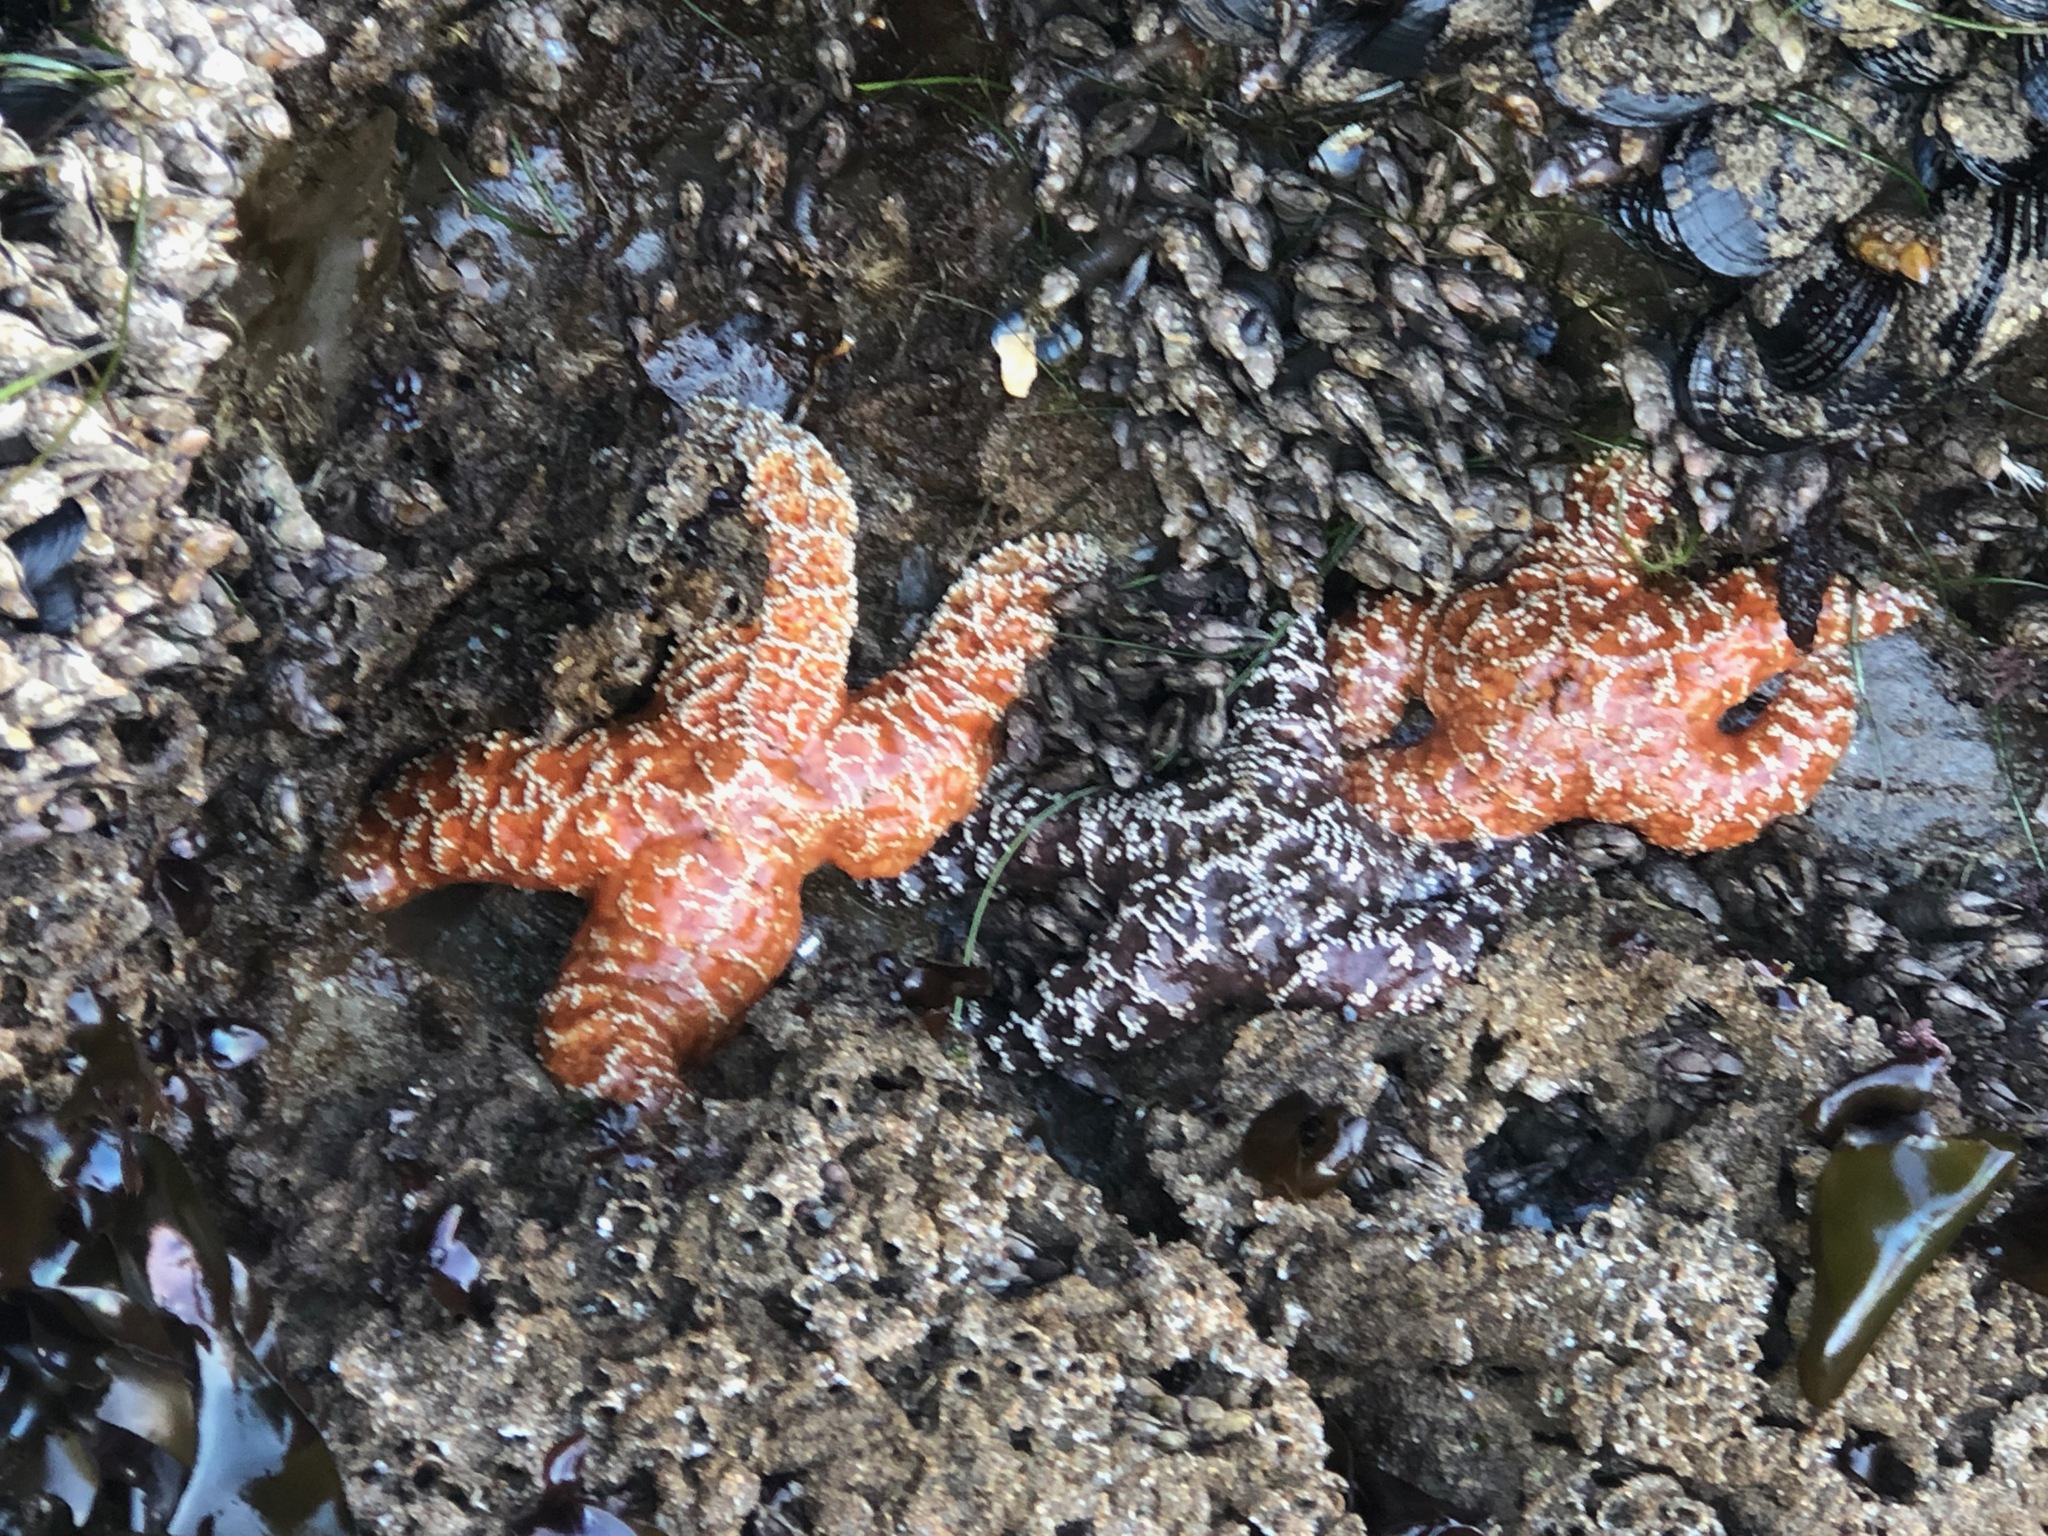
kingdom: Animalia
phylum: Echinodermata
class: Asteroidea
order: Forcipulatida
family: Asteriidae
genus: Pisaster
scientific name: Pisaster ochraceus
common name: Ochre stars
